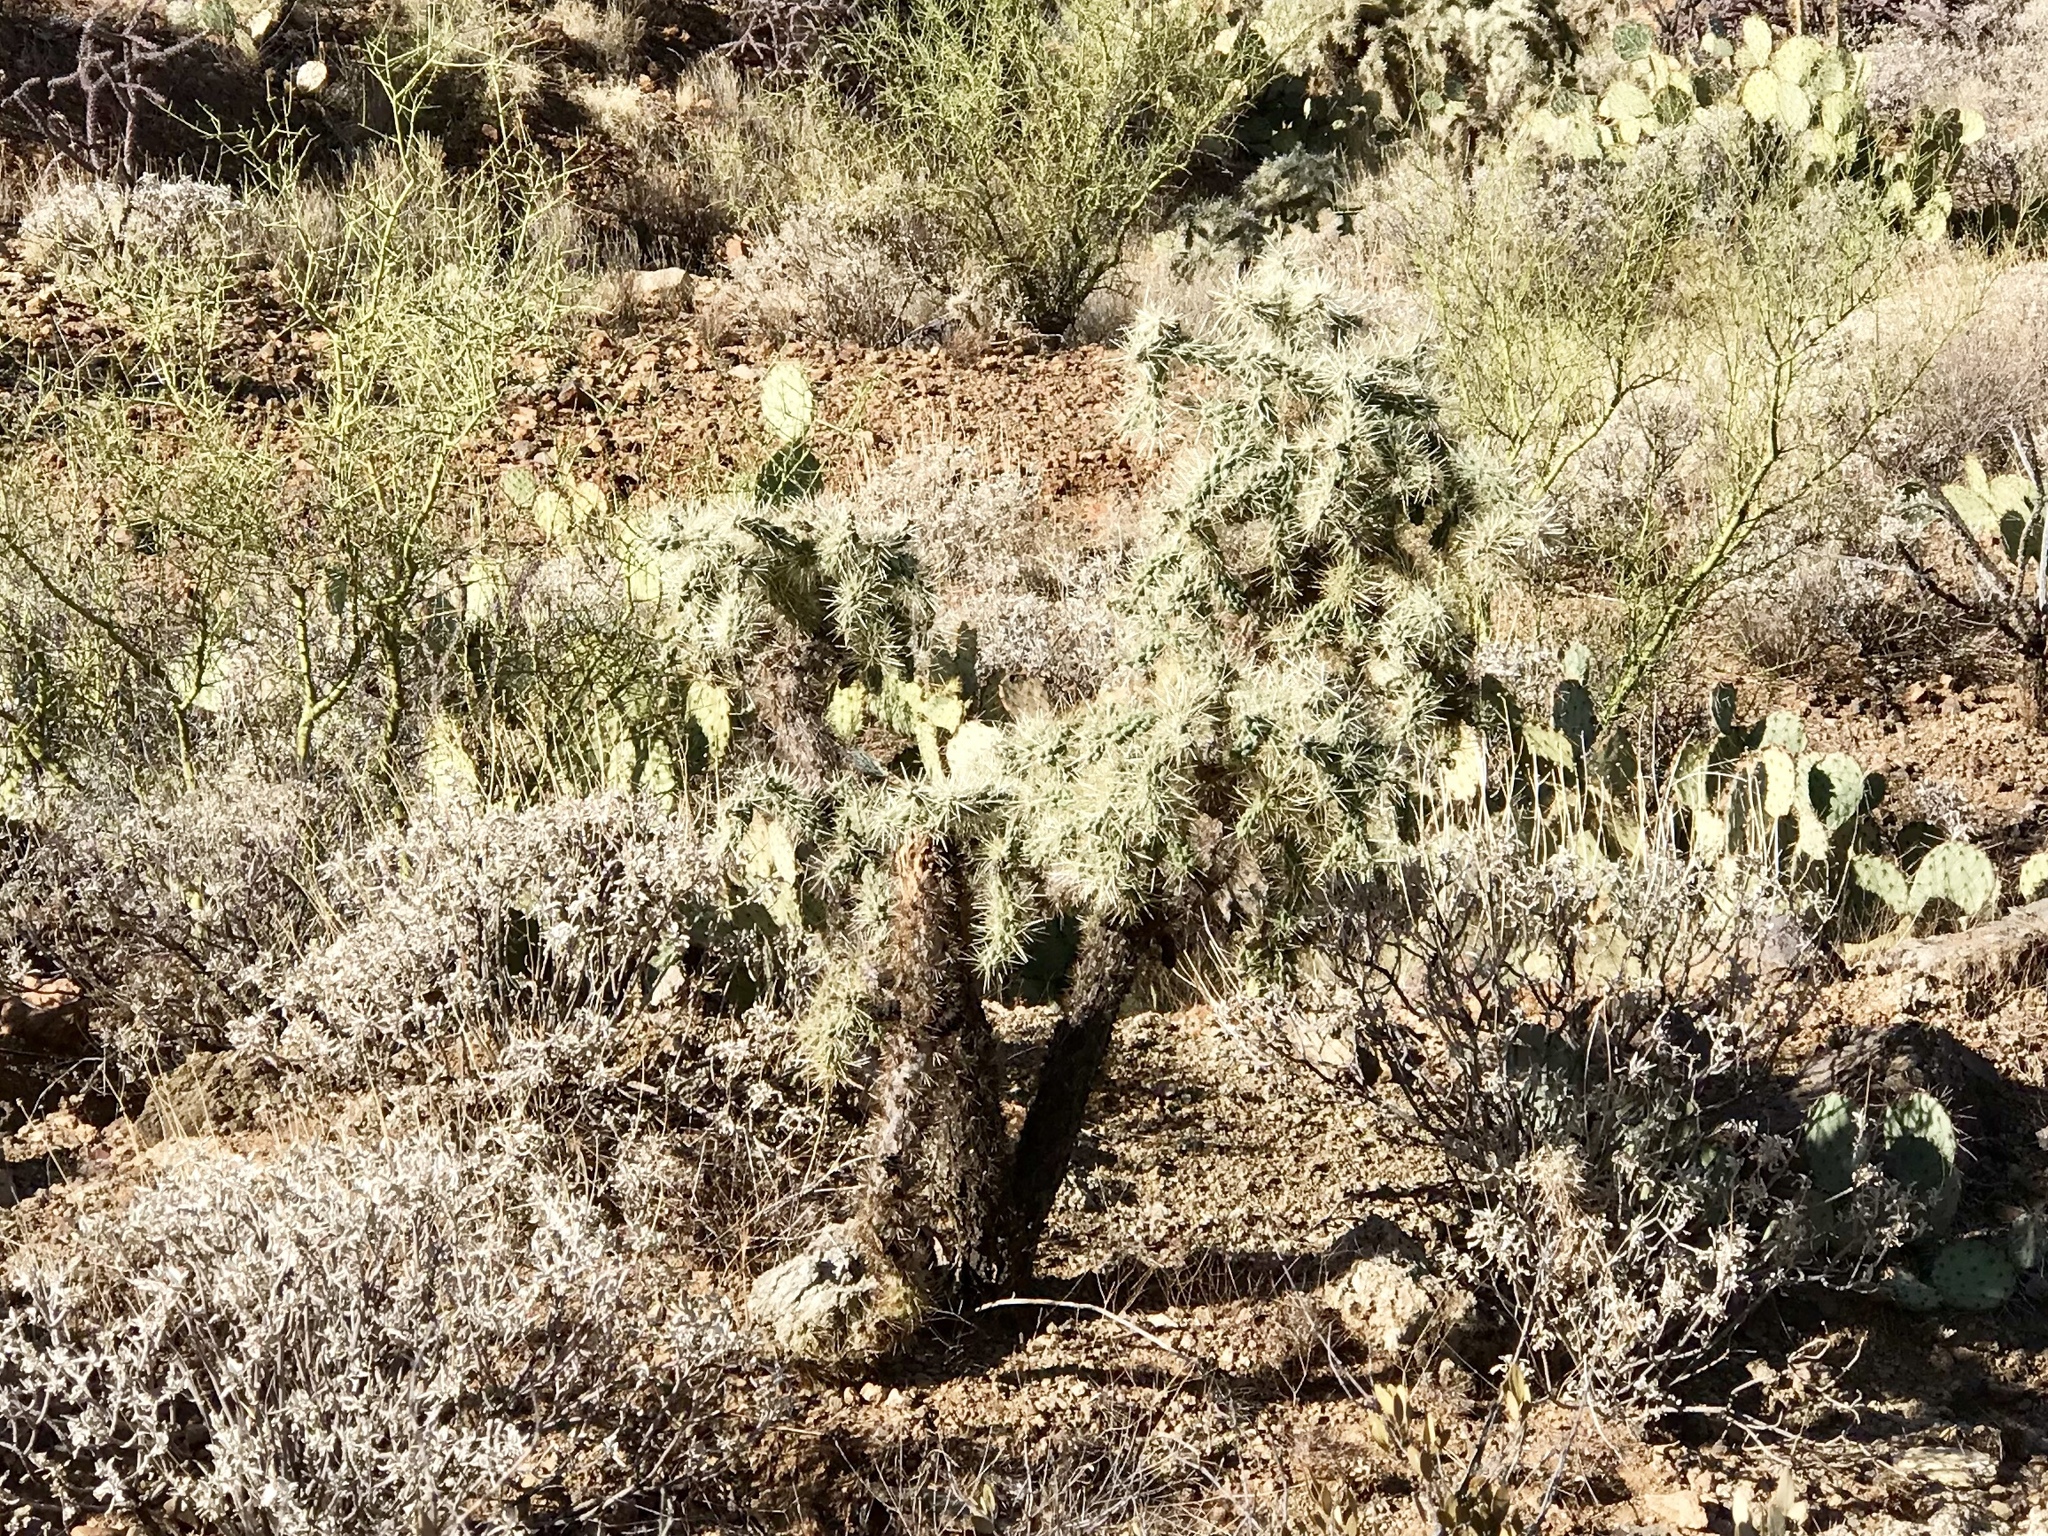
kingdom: Plantae
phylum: Tracheophyta
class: Magnoliopsida
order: Caryophyllales
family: Cactaceae
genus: Cylindropuntia
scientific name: Cylindropuntia fulgida
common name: Jumping cholla
